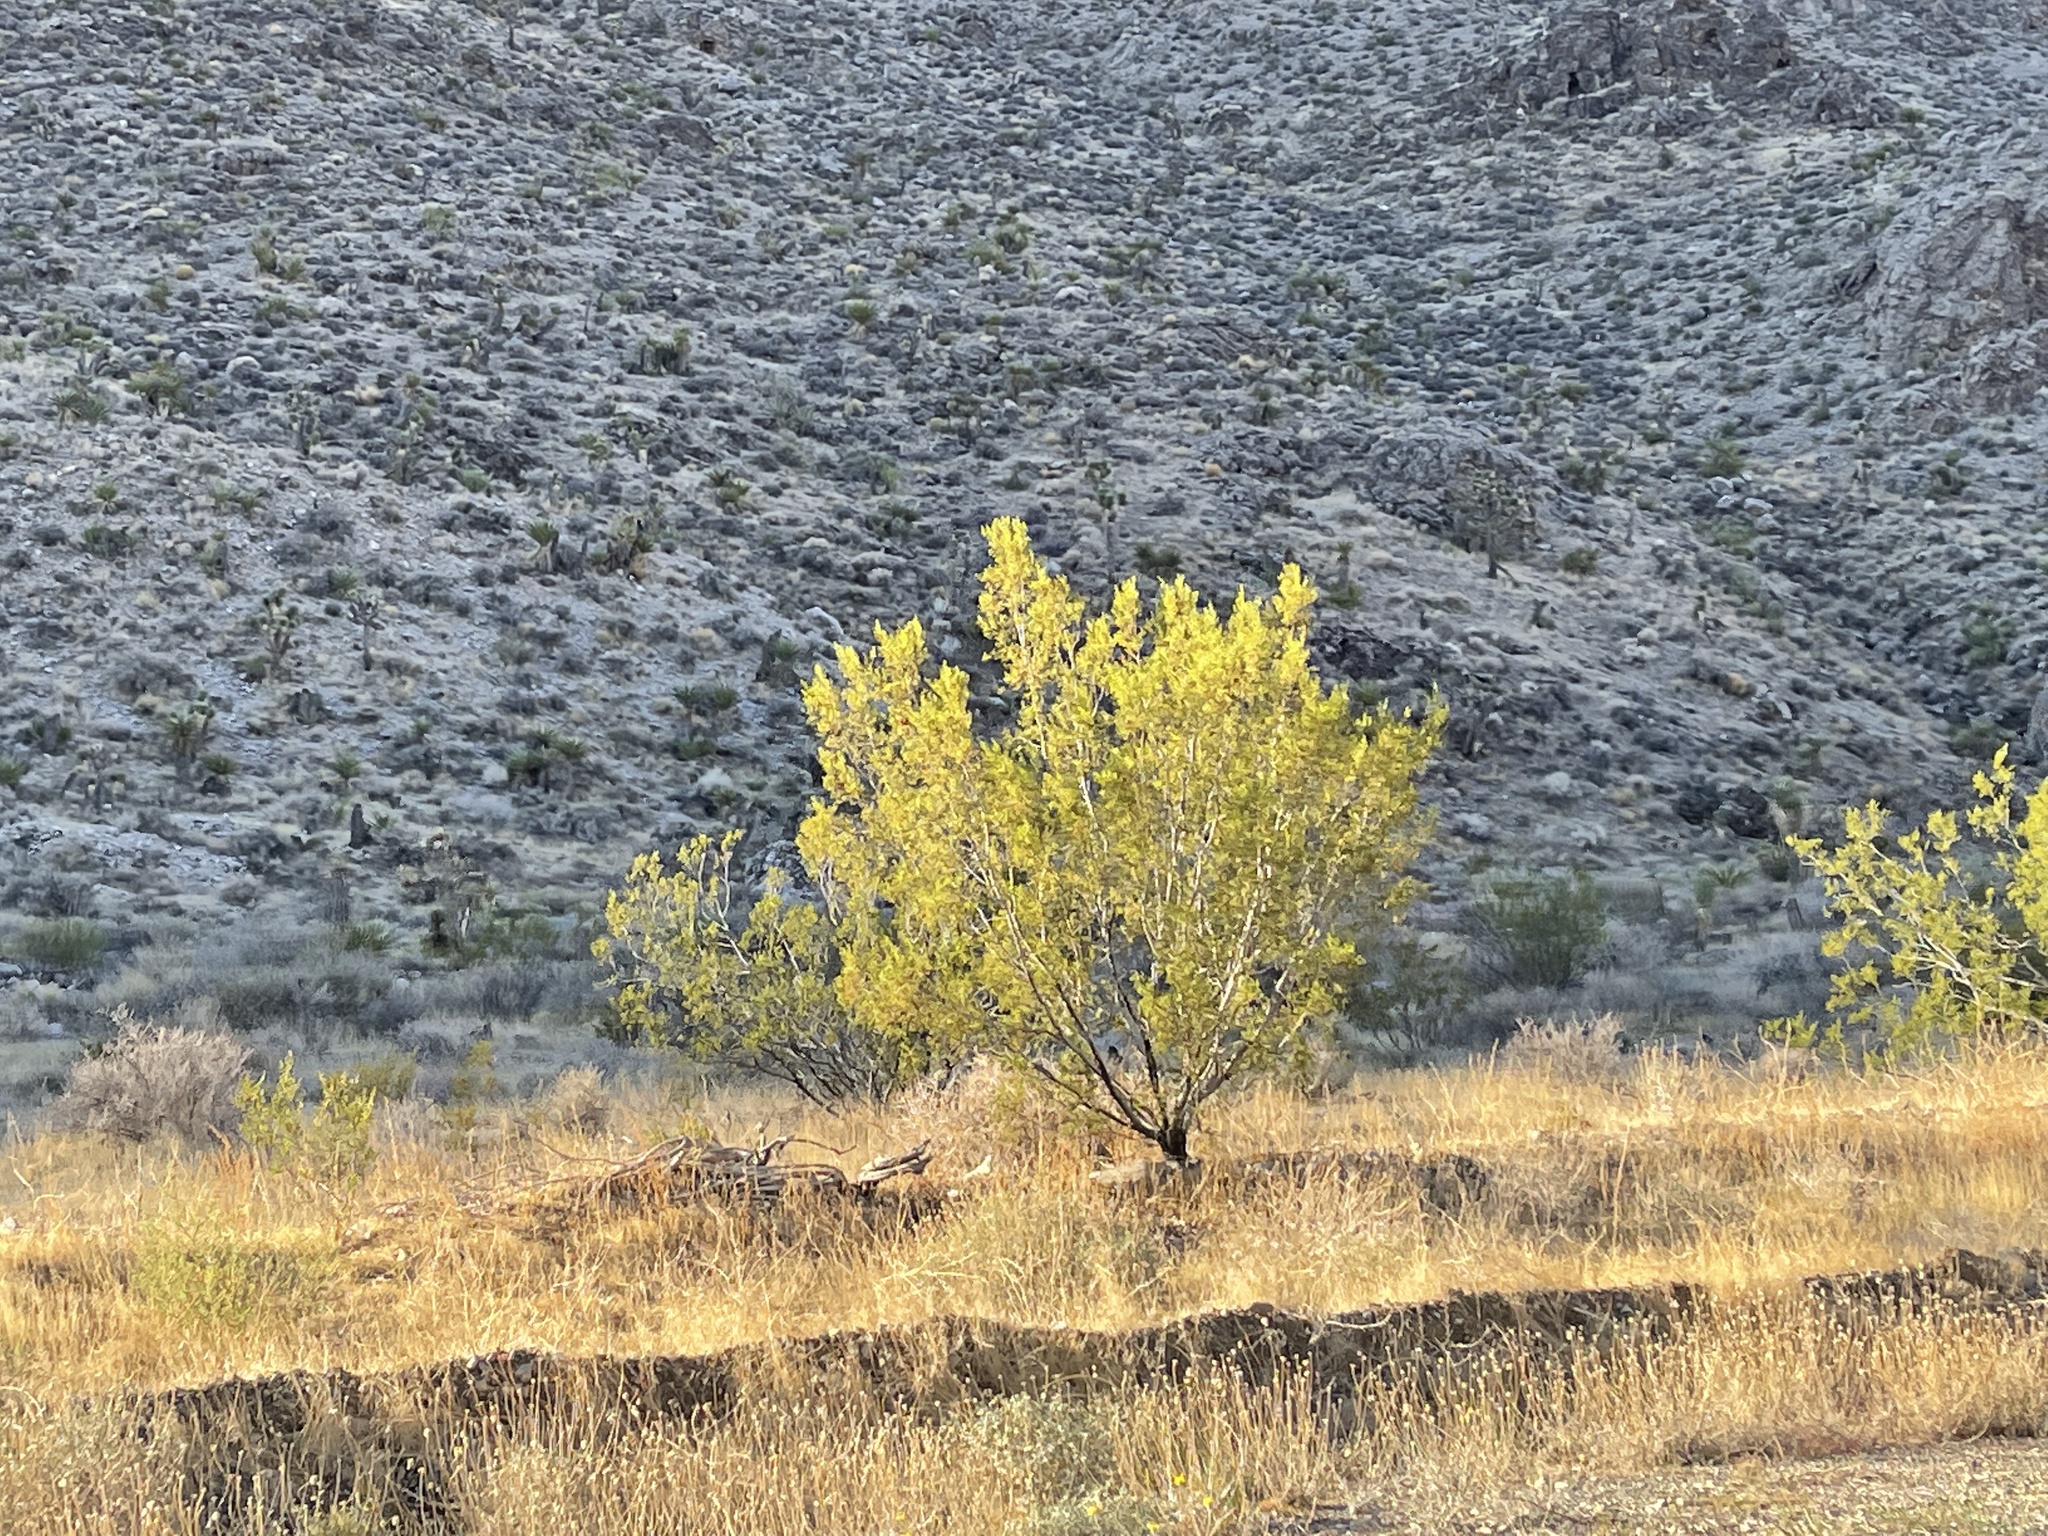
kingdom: Plantae
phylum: Tracheophyta
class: Magnoliopsida
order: Zygophyllales
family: Zygophyllaceae
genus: Larrea
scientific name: Larrea tridentata
